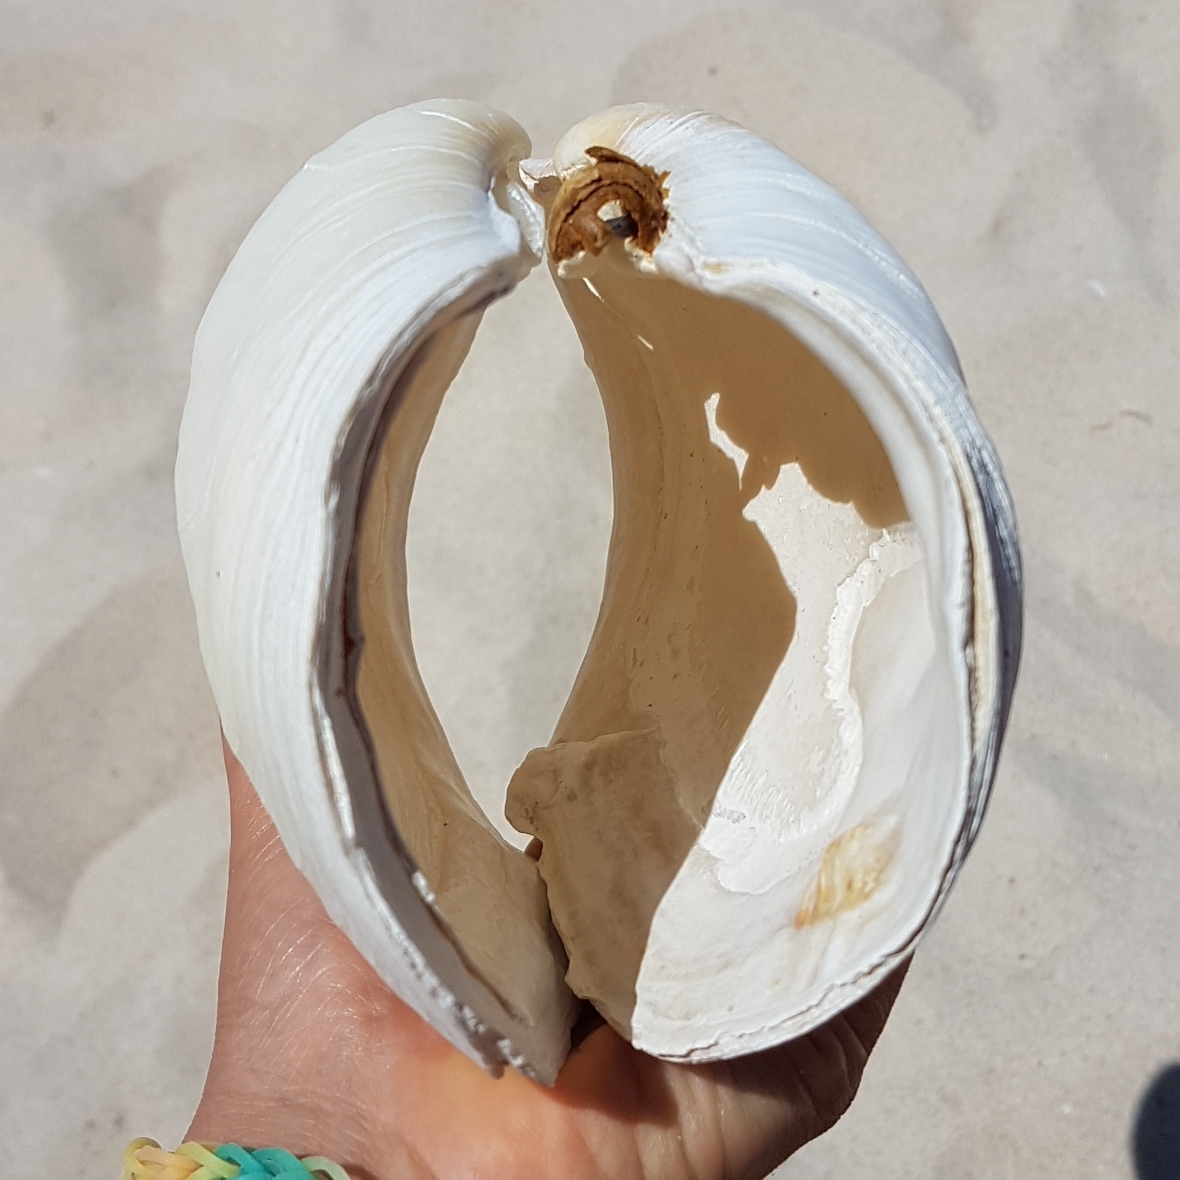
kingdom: Animalia
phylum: Mollusca
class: Bivalvia
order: Adapedonta
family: Hiatellidae
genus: Panopea
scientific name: Panopea glycimeris
